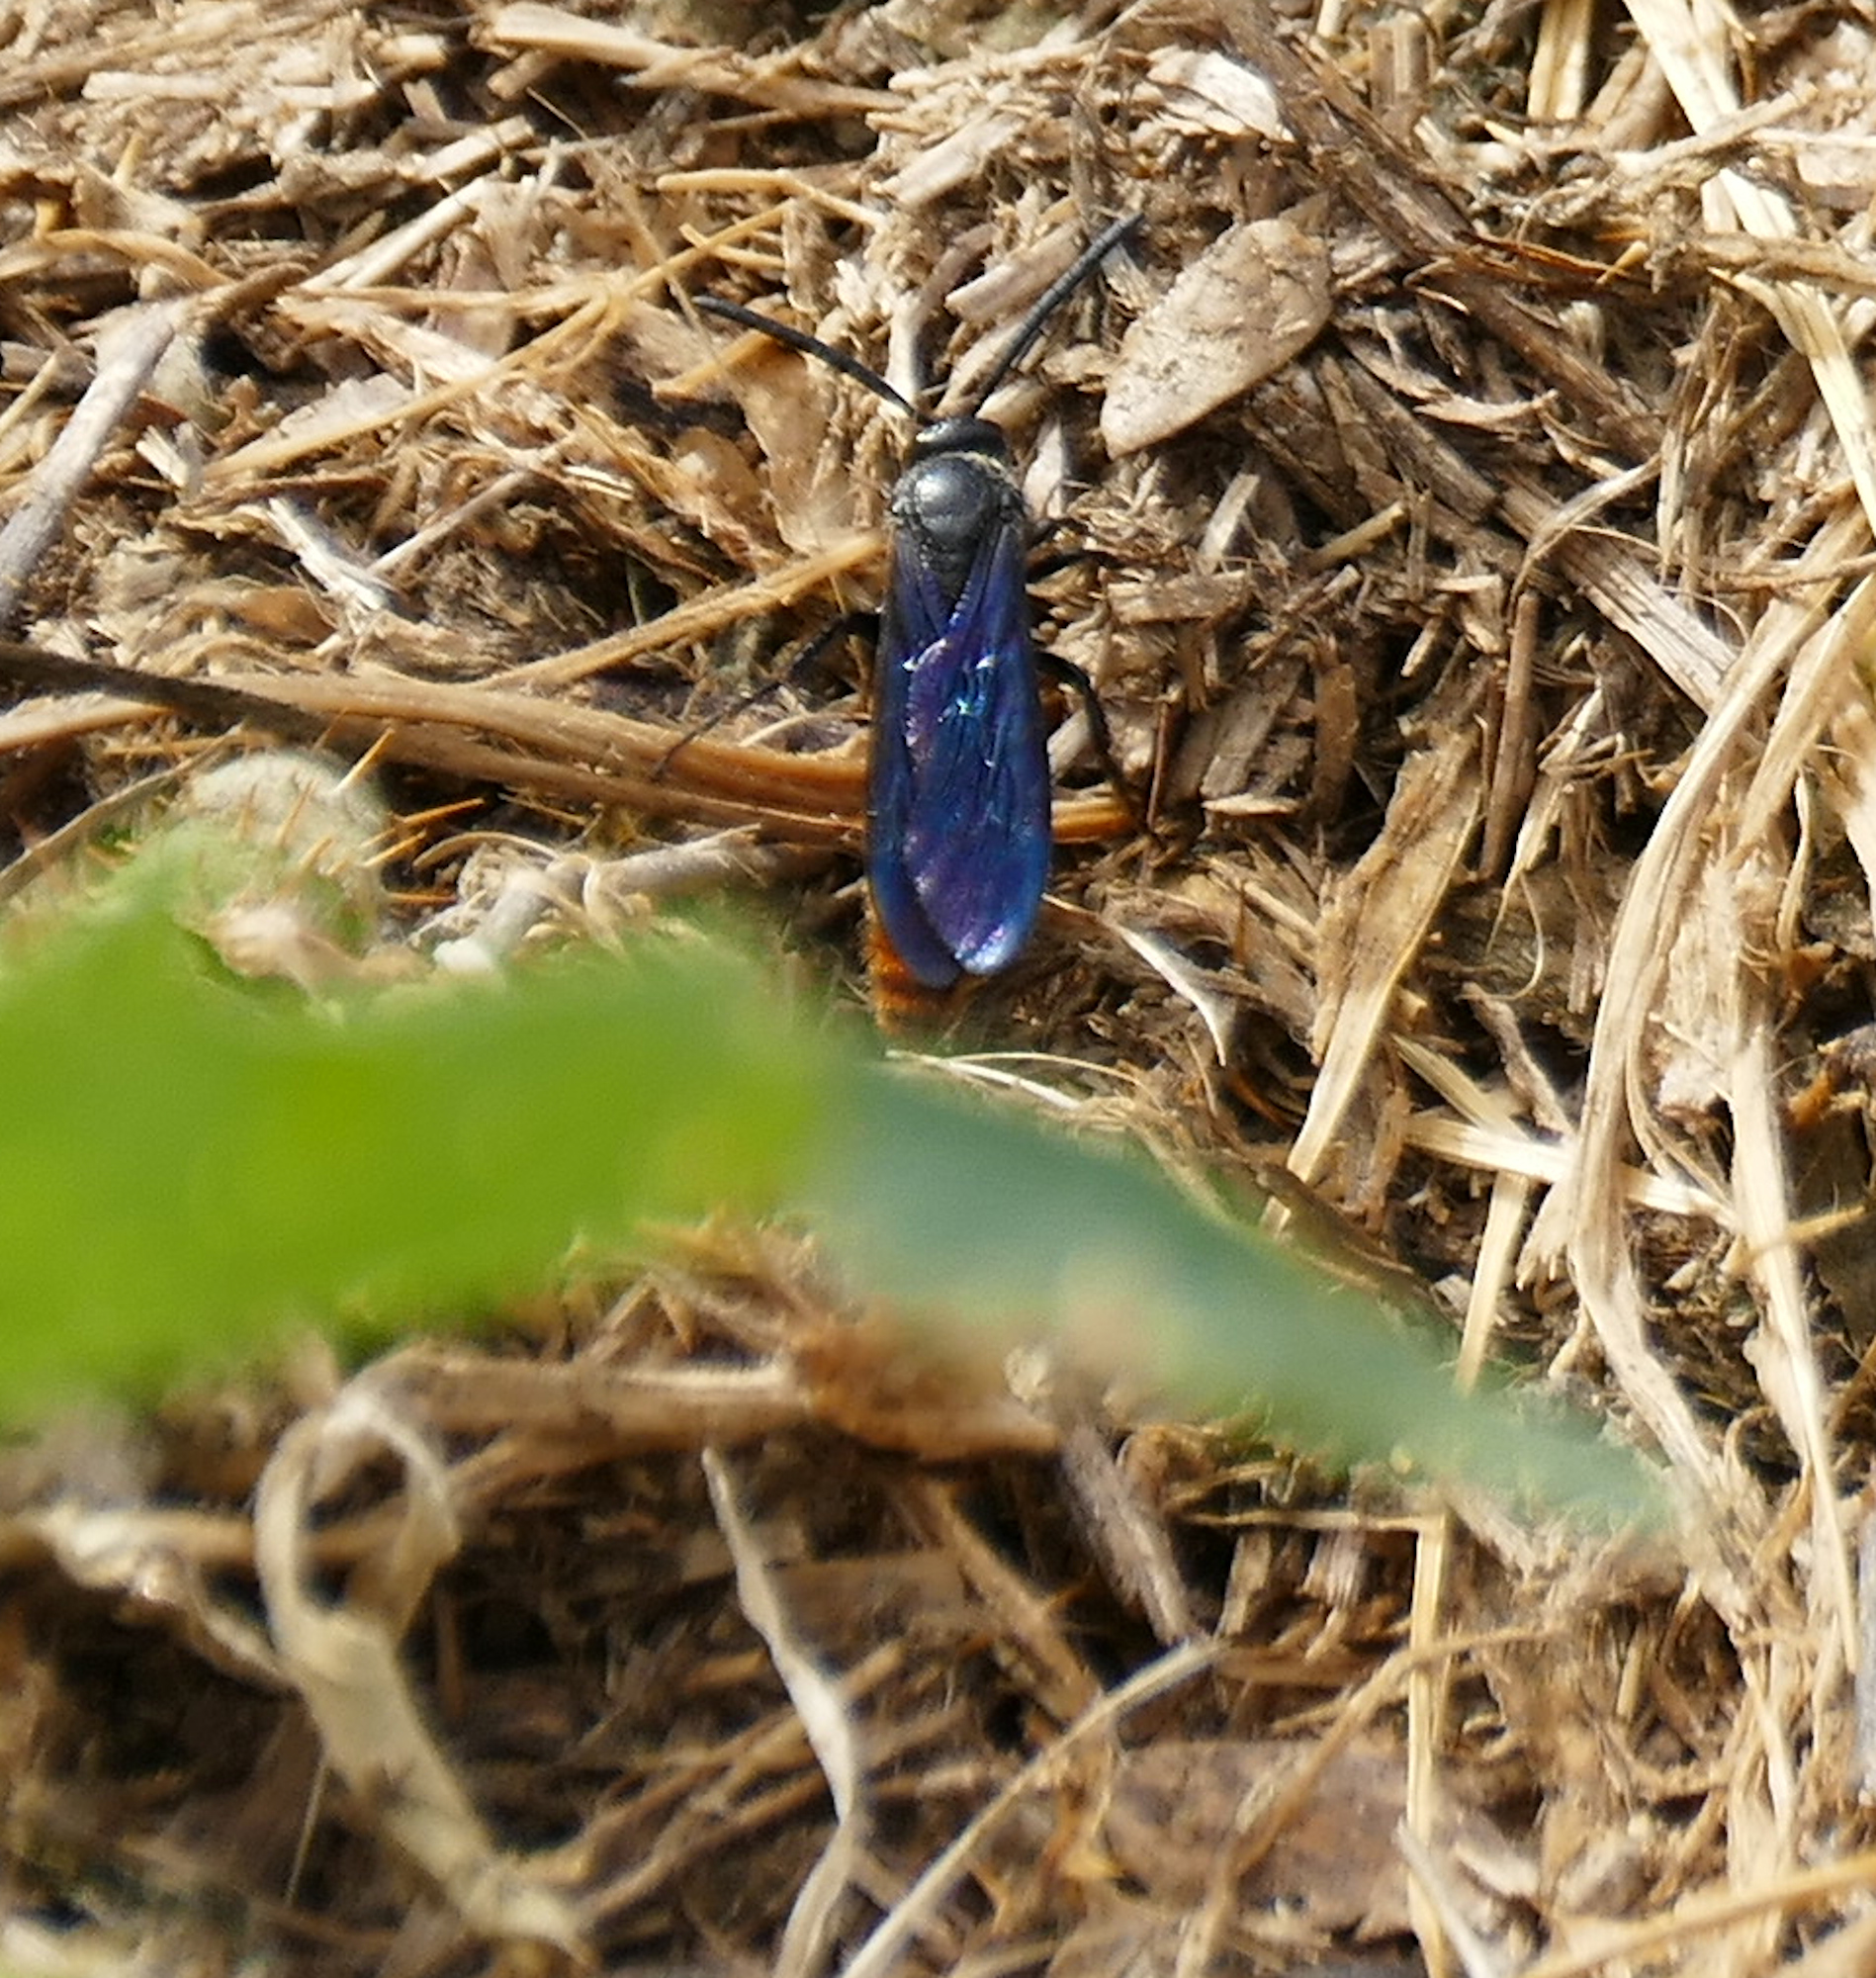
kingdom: Animalia
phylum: Arthropoda
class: Insecta
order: Hymenoptera
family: Scoliidae
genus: Scolia
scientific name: Scolia dubia
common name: Blue-winged scoliid wasp
